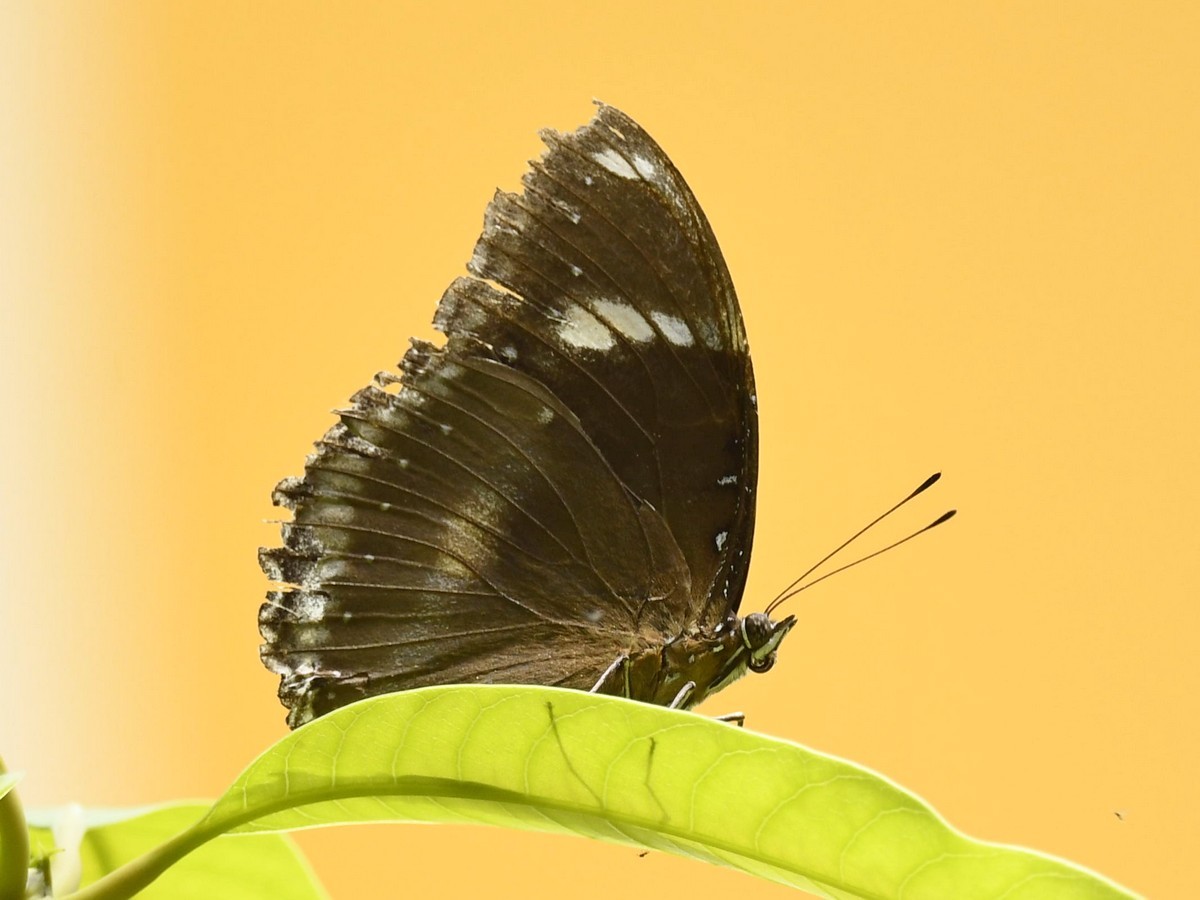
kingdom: Animalia
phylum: Arthropoda
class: Insecta
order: Lepidoptera
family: Nymphalidae
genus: Hypolimnas
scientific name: Hypolimnas bolina
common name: Great eggfly
